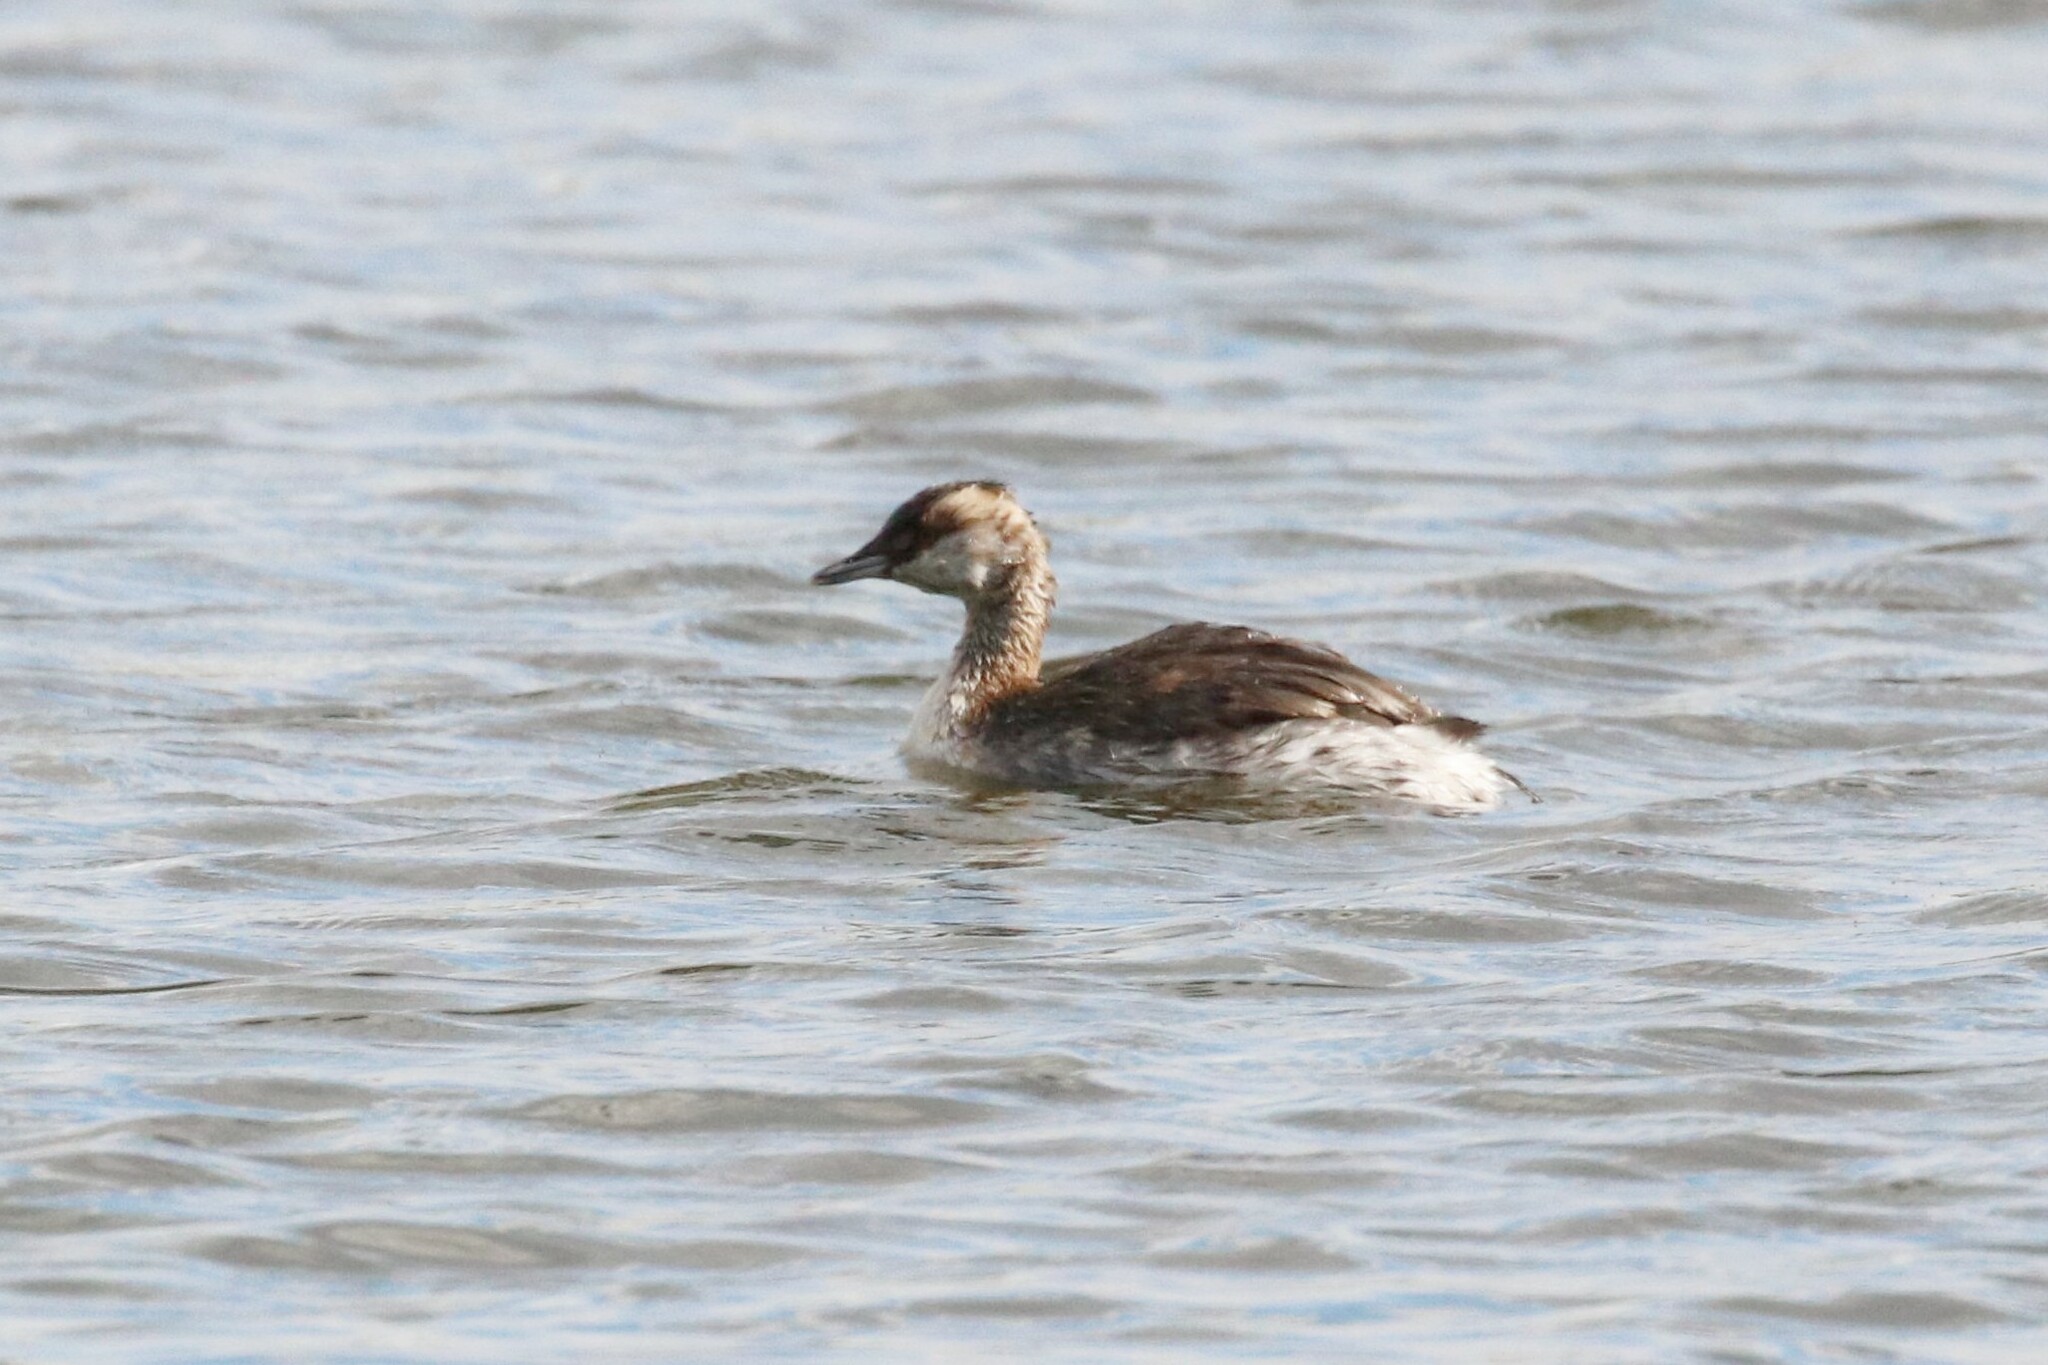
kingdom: Animalia
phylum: Chordata
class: Aves
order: Podicipediformes
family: Podicipedidae
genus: Podiceps
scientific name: Podiceps auritus
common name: Horned grebe
